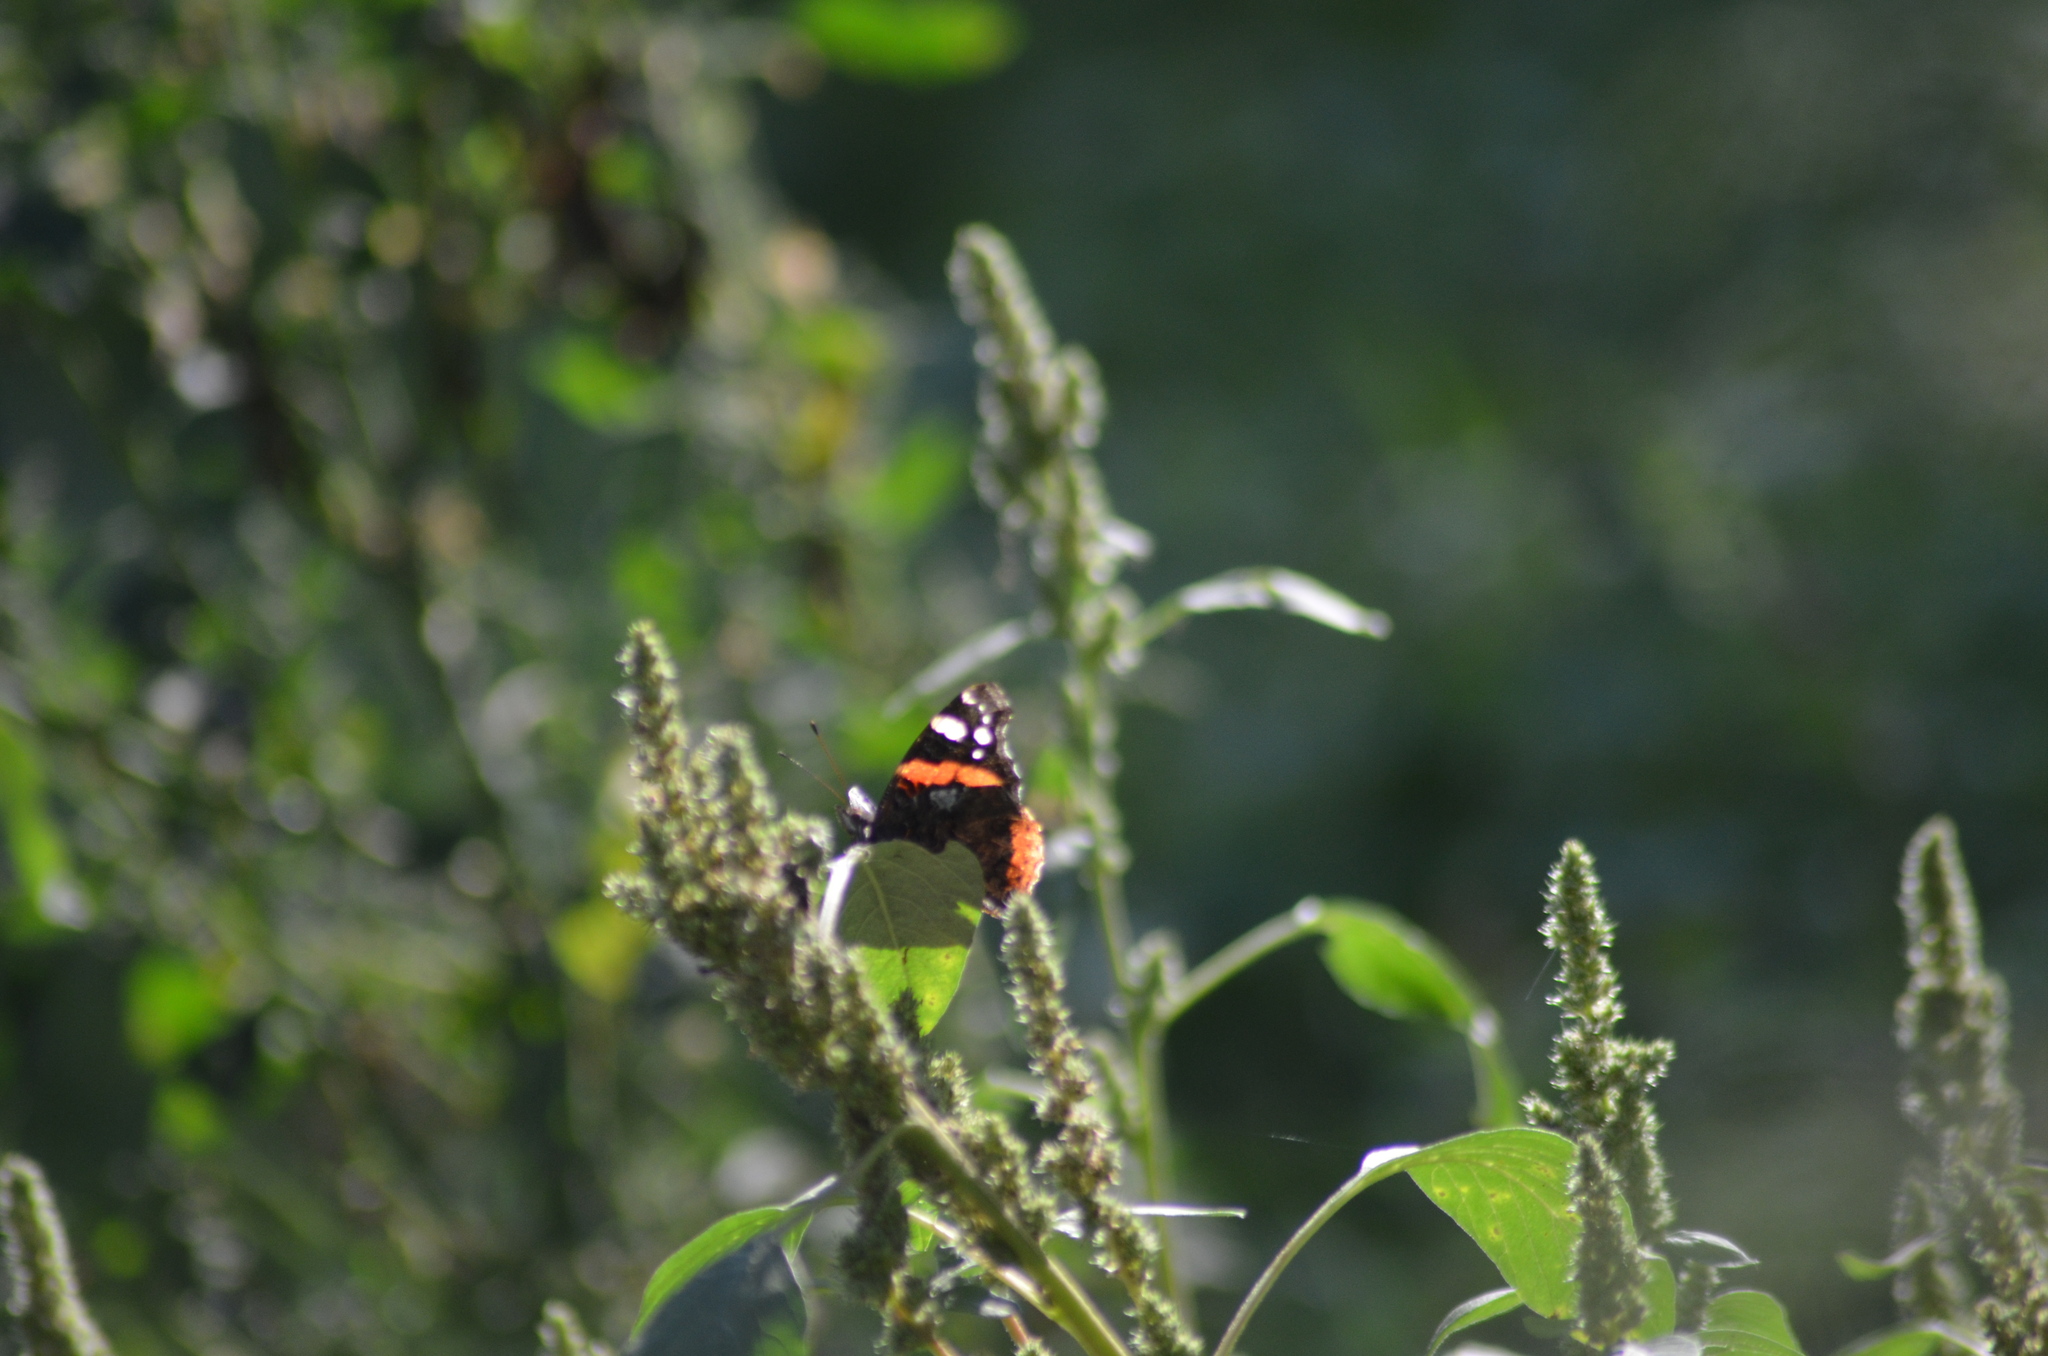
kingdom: Animalia
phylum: Arthropoda
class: Insecta
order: Lepidoptera
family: Nymphalidae
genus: Vanessa
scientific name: Vanessa atalanta
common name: Red admiral
